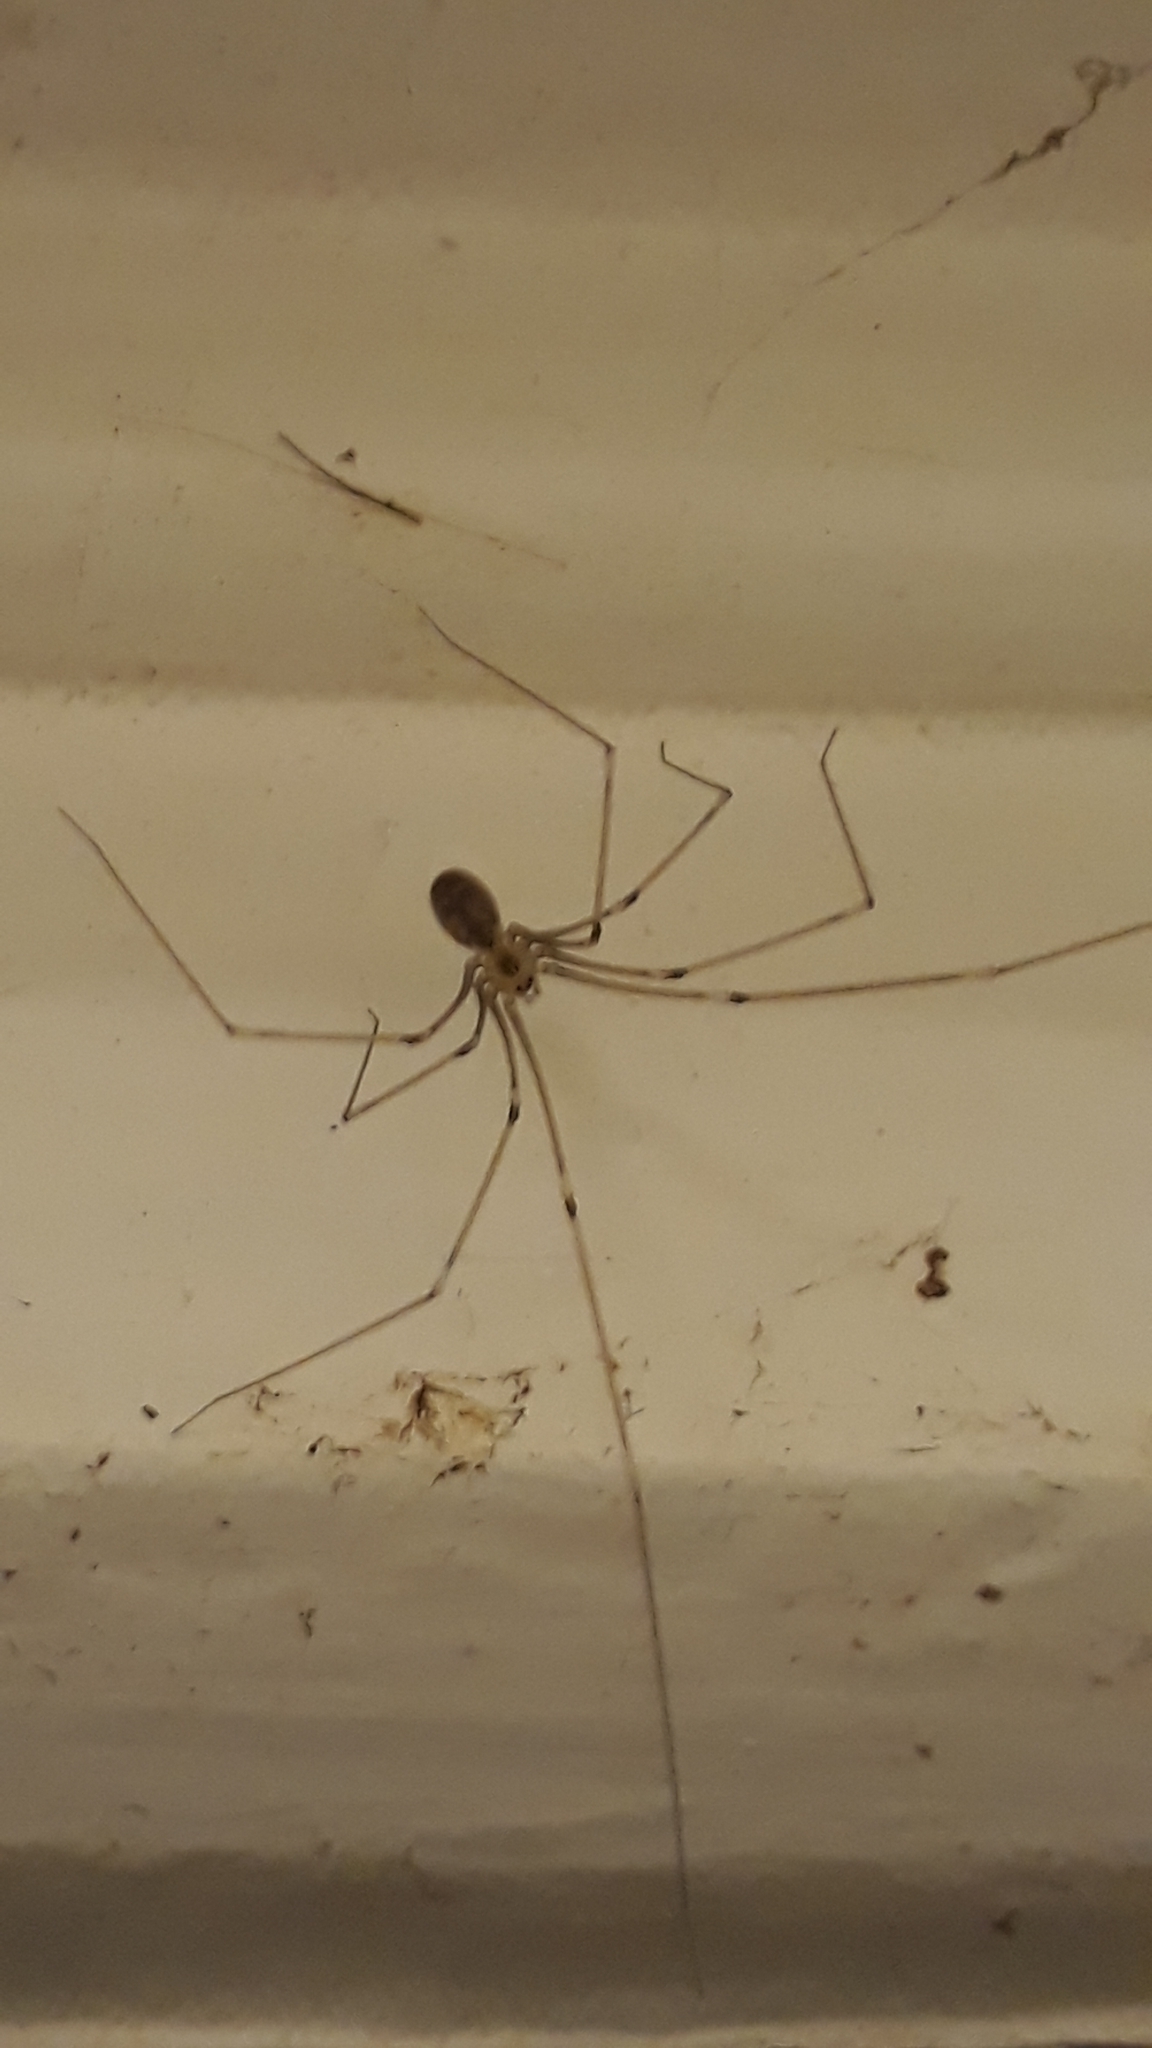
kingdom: Animalia
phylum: Arthropoda
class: Arachnida
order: Araneae
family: Pholcidae
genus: Pholcus
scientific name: Pholcus phalangioides
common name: Longbodied cellar spider
